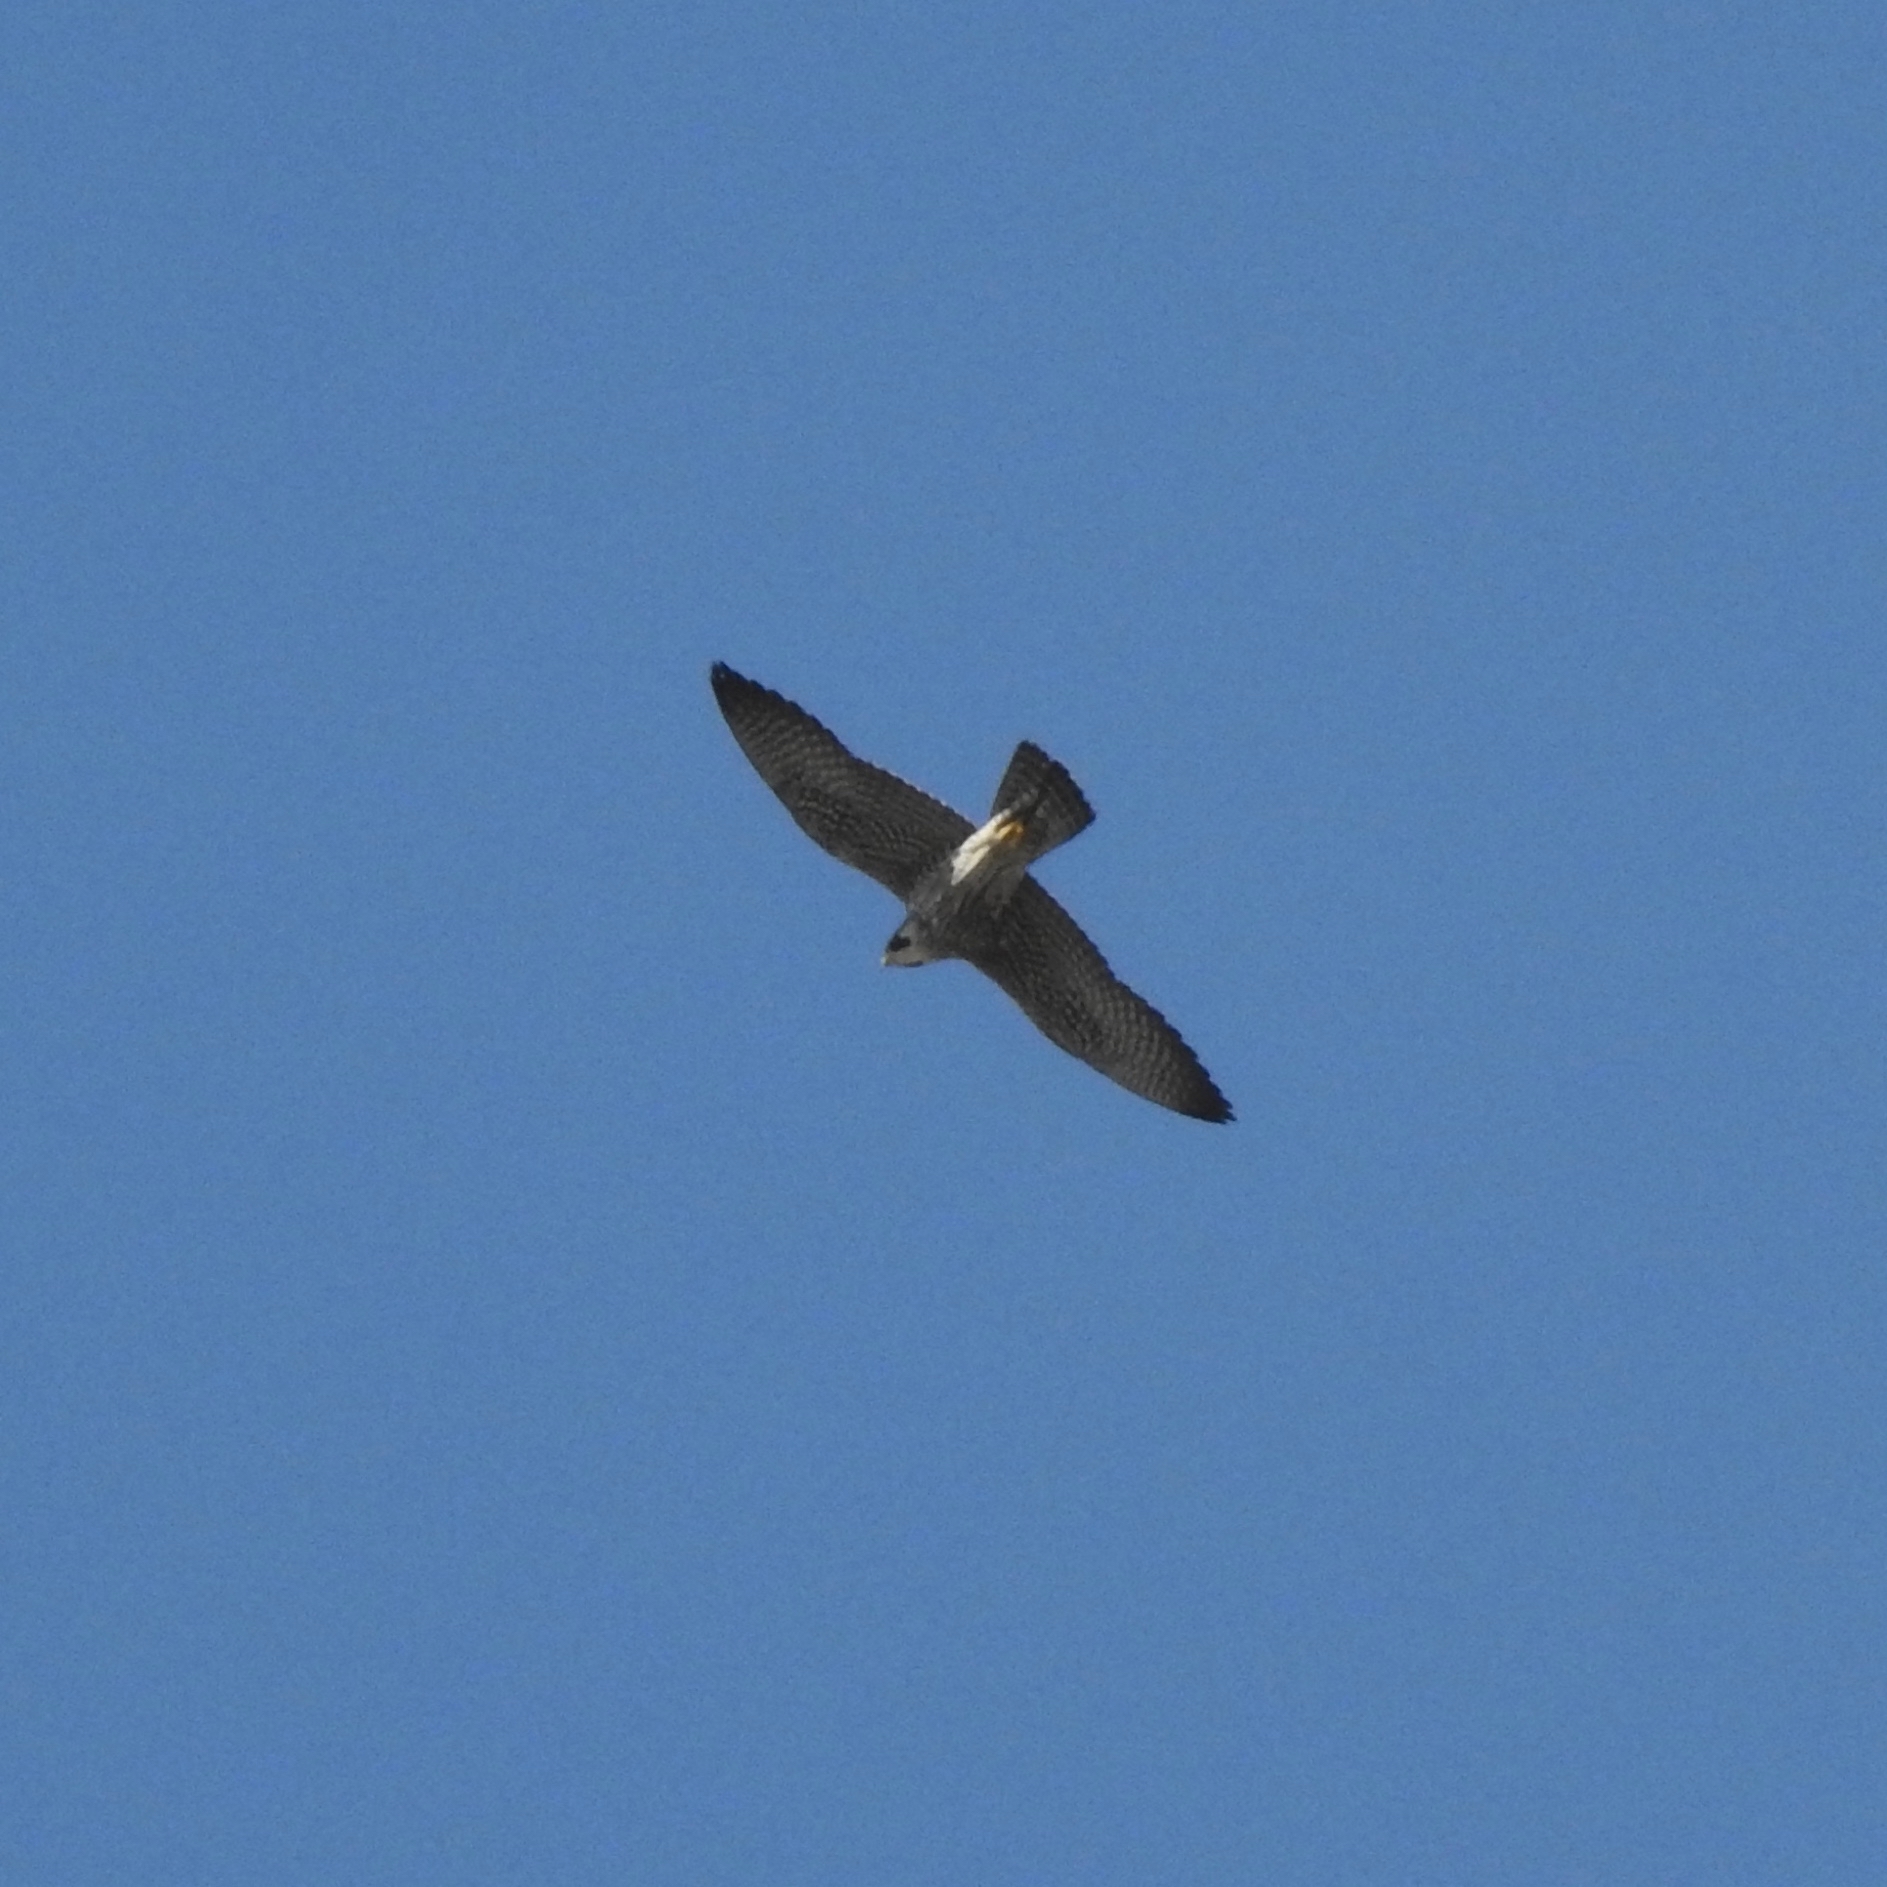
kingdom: Animalia
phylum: Chordata
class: Aves
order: Falconiformes
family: Falconidae
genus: Falco
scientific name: Falco peregrinus
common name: Peregrine falcon
